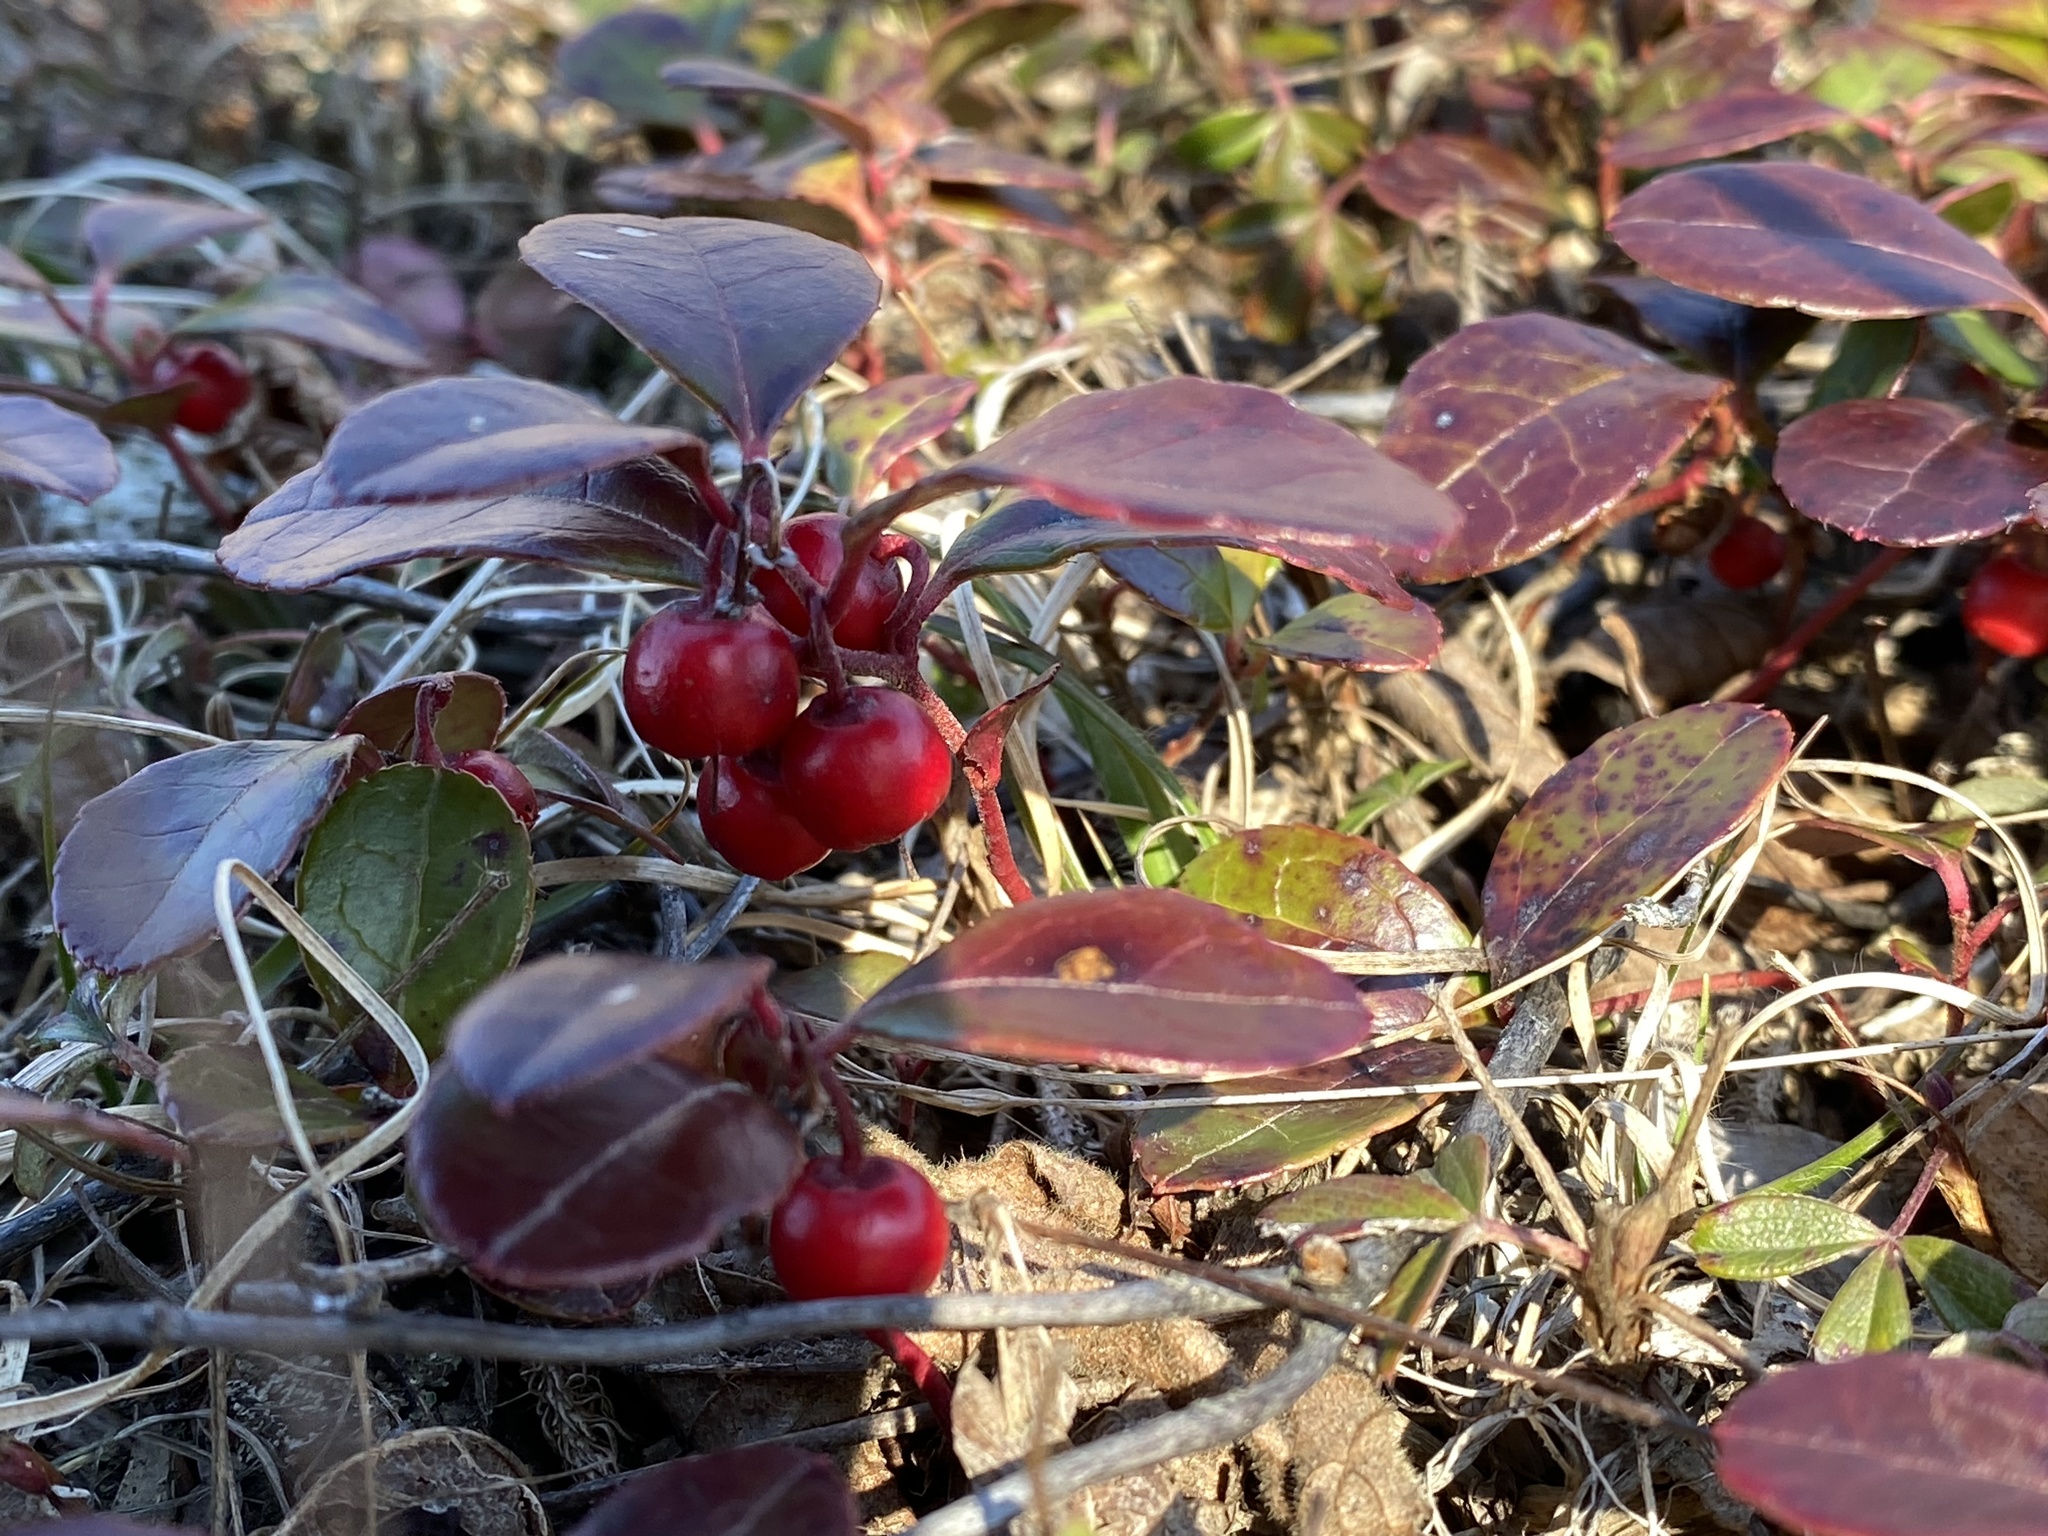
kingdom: Plantae
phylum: Tracheophyta
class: Magnoliopsida
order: Ericales
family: Ericaceae
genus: Gaultheria
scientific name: Gaultheria procumbens
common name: Checkerberry
